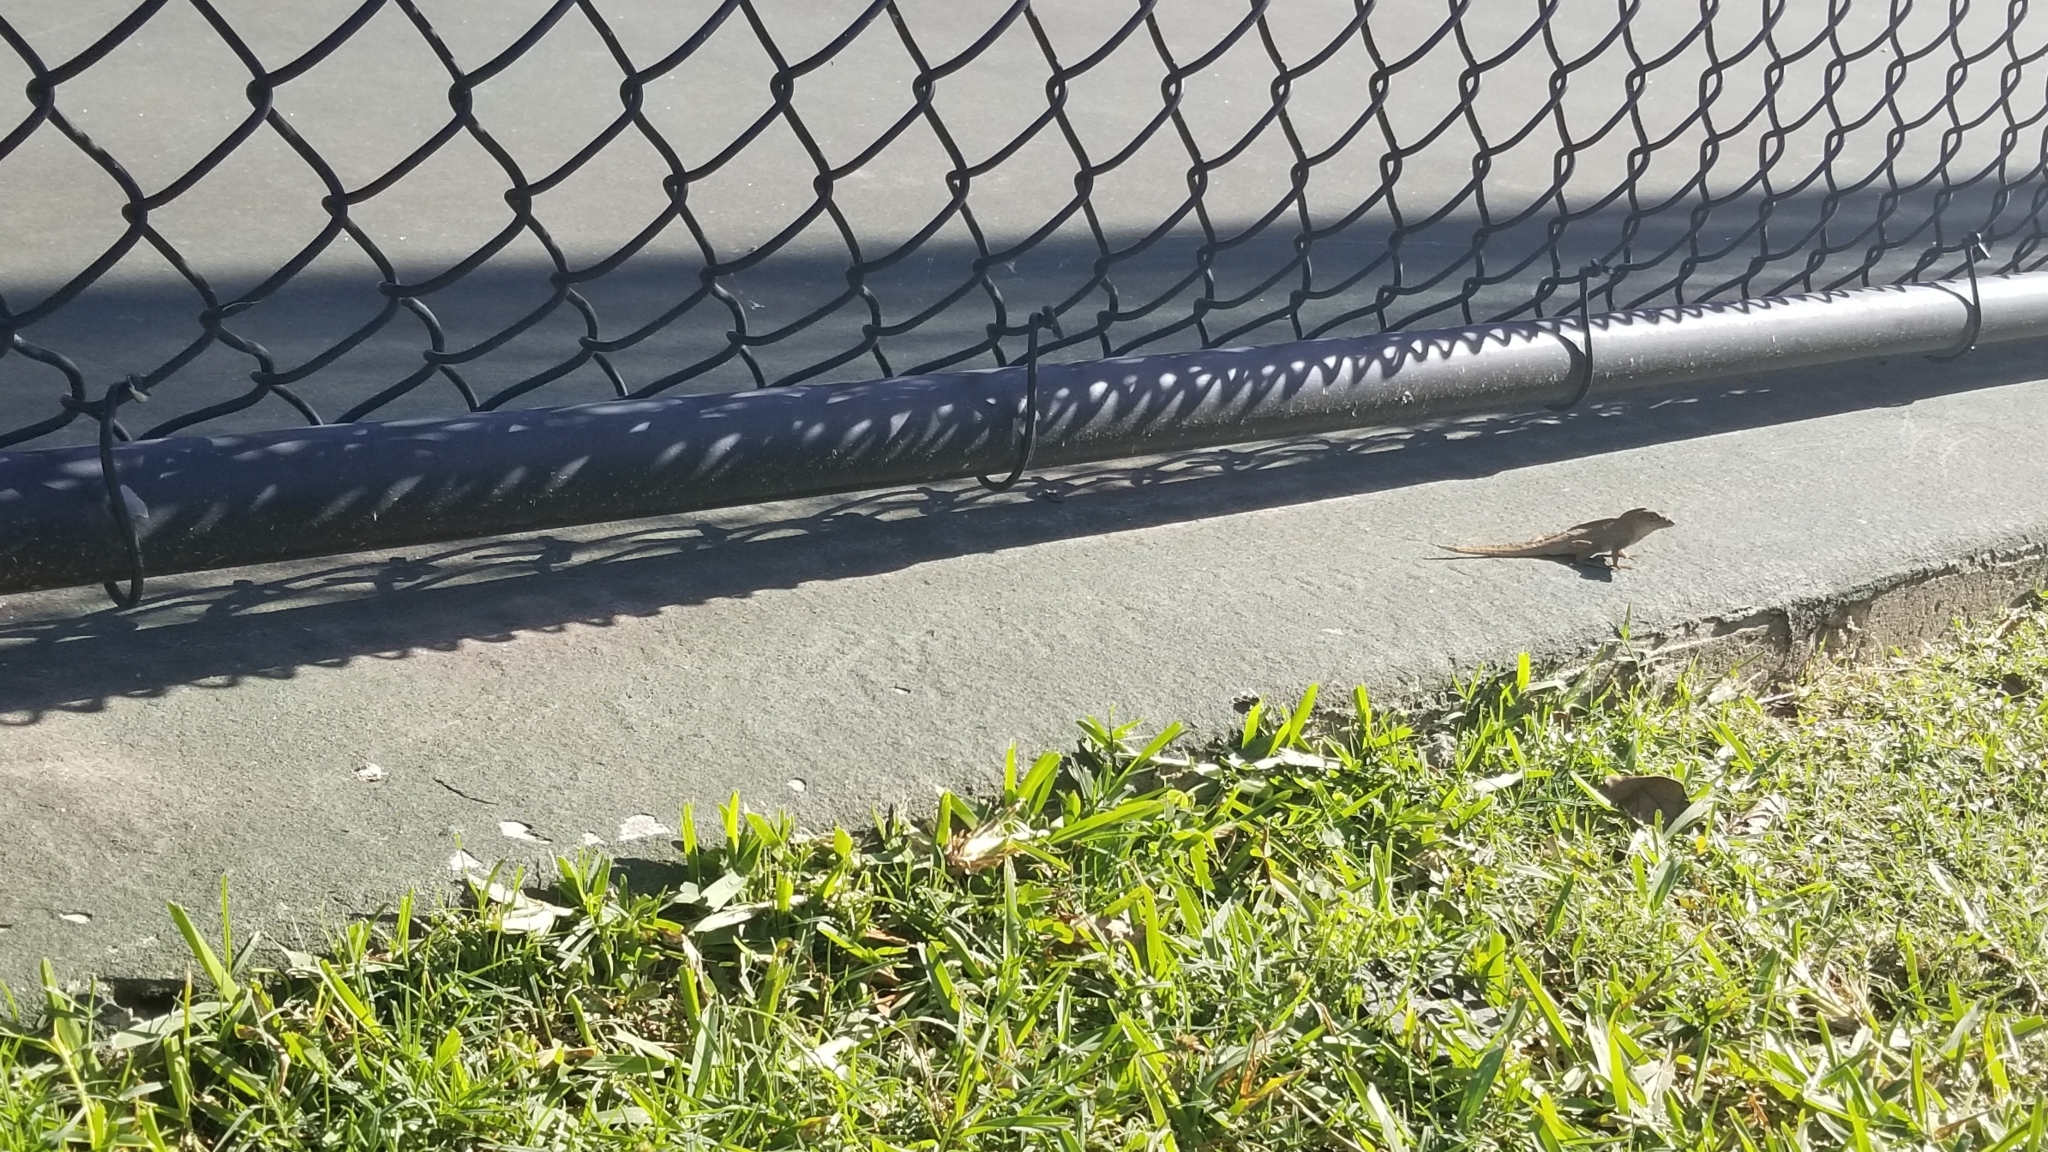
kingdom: Animalia
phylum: Chordata
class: Squamata
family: Dactyloidae
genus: Anolis
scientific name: Anolis sagrei
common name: Brown anole
